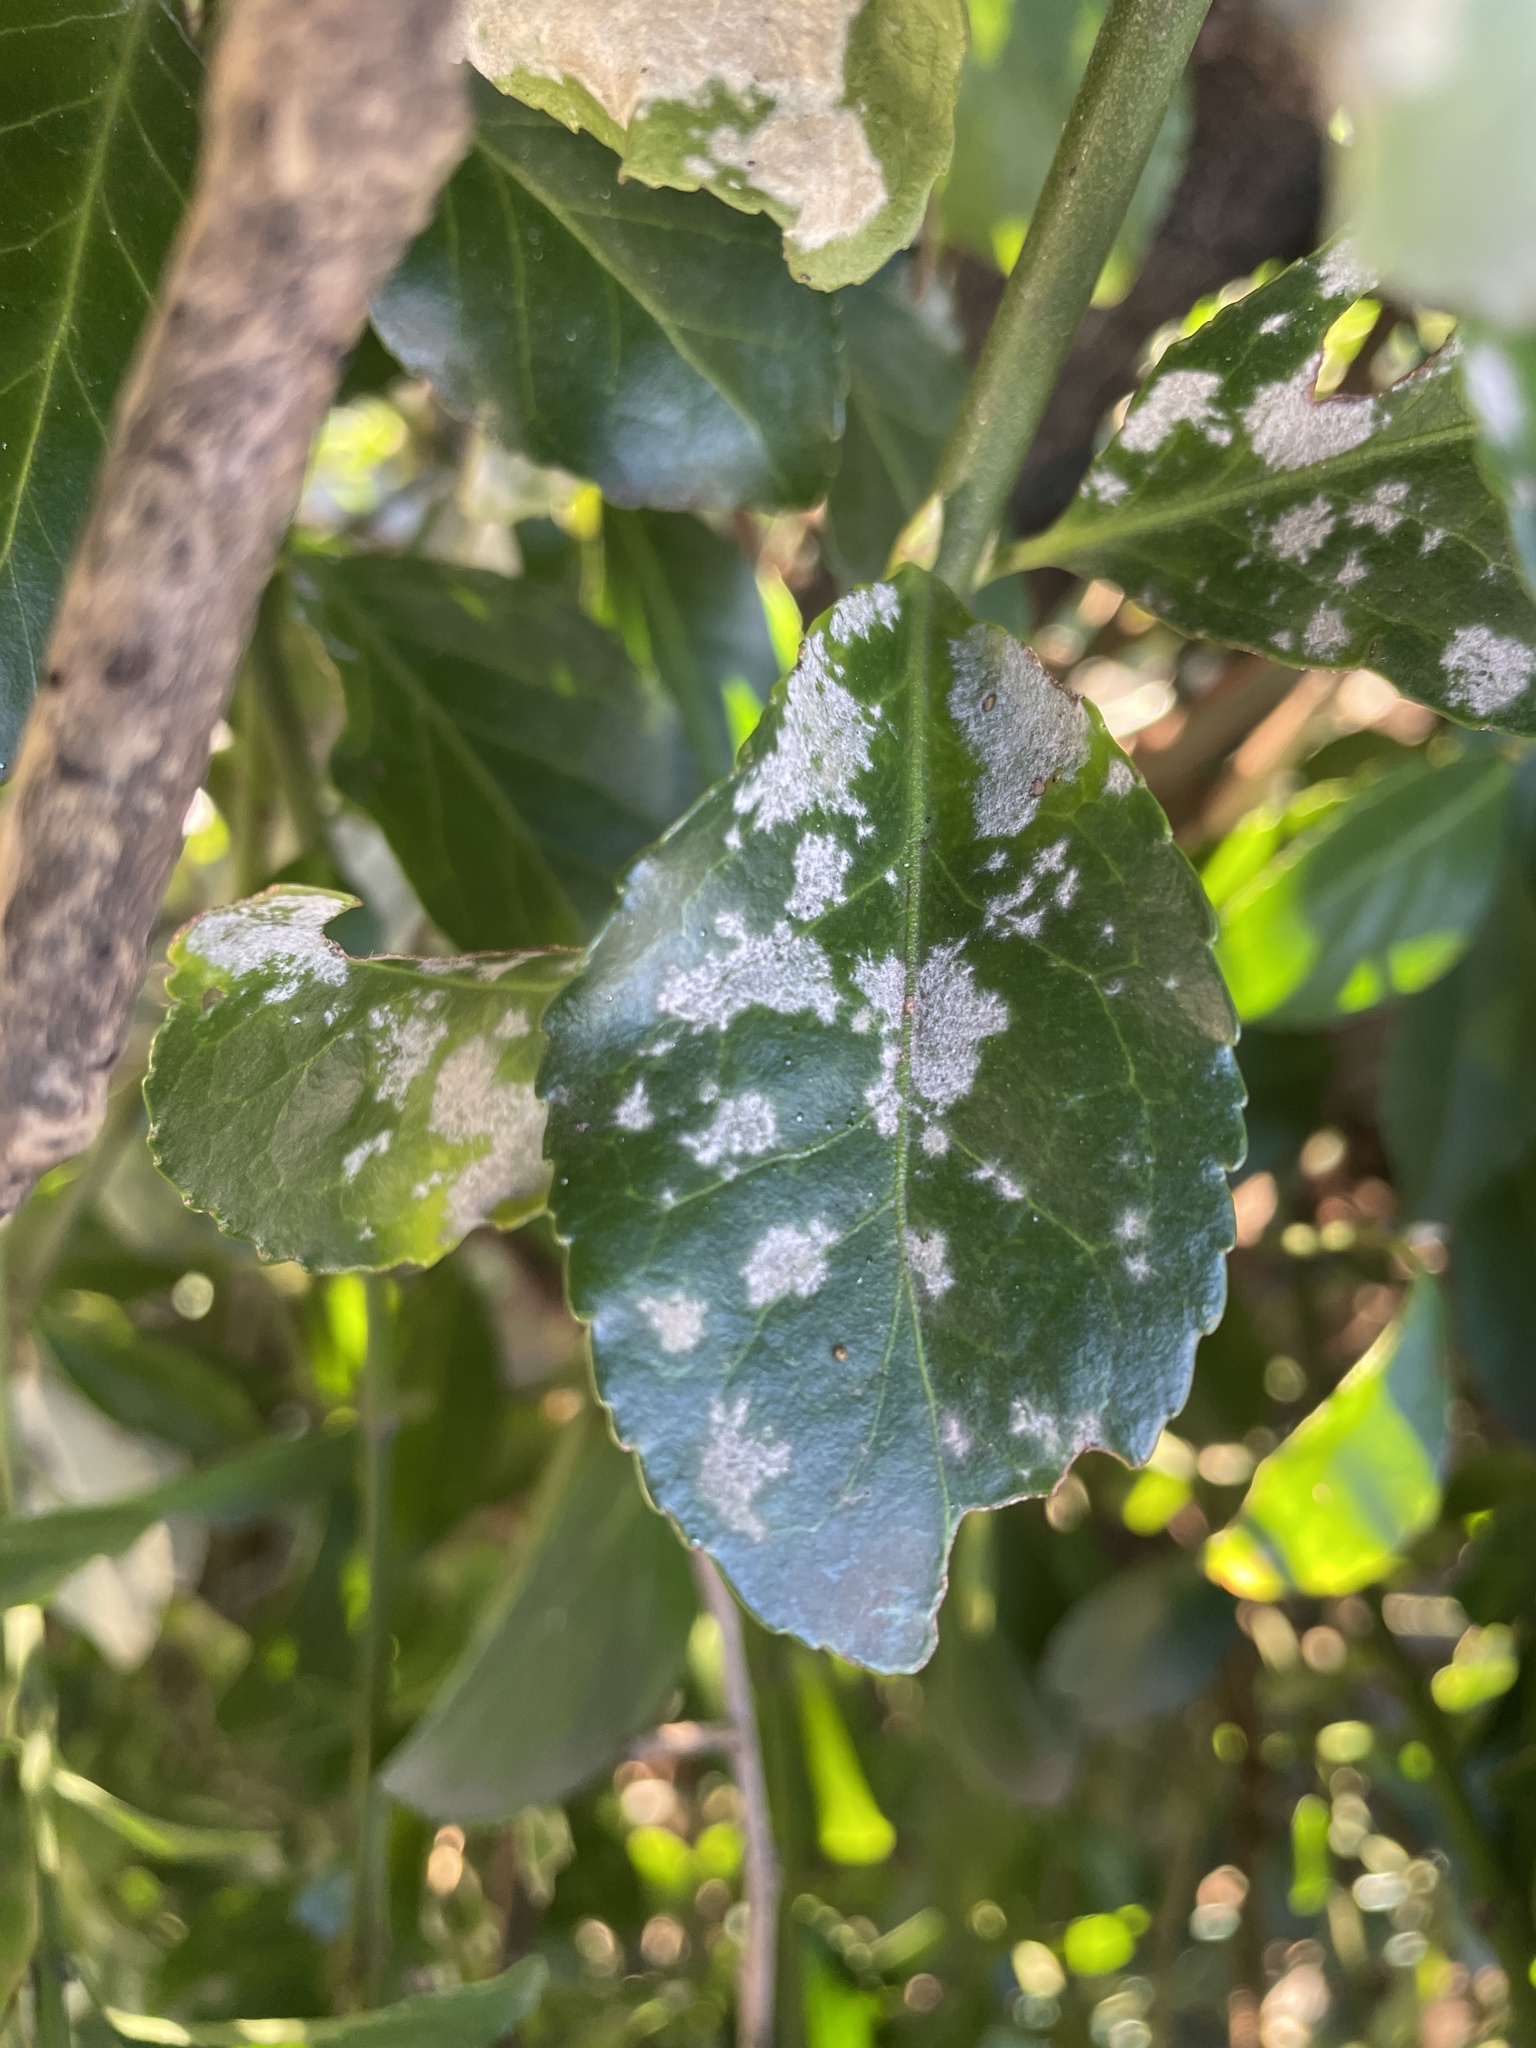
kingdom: Fungi
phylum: Ascomycota
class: Leotiomycetes
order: Helotiales
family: Erysiphaceae
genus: Erysiphe
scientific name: Erysiphe euonymicola
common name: Spindletree mildew
